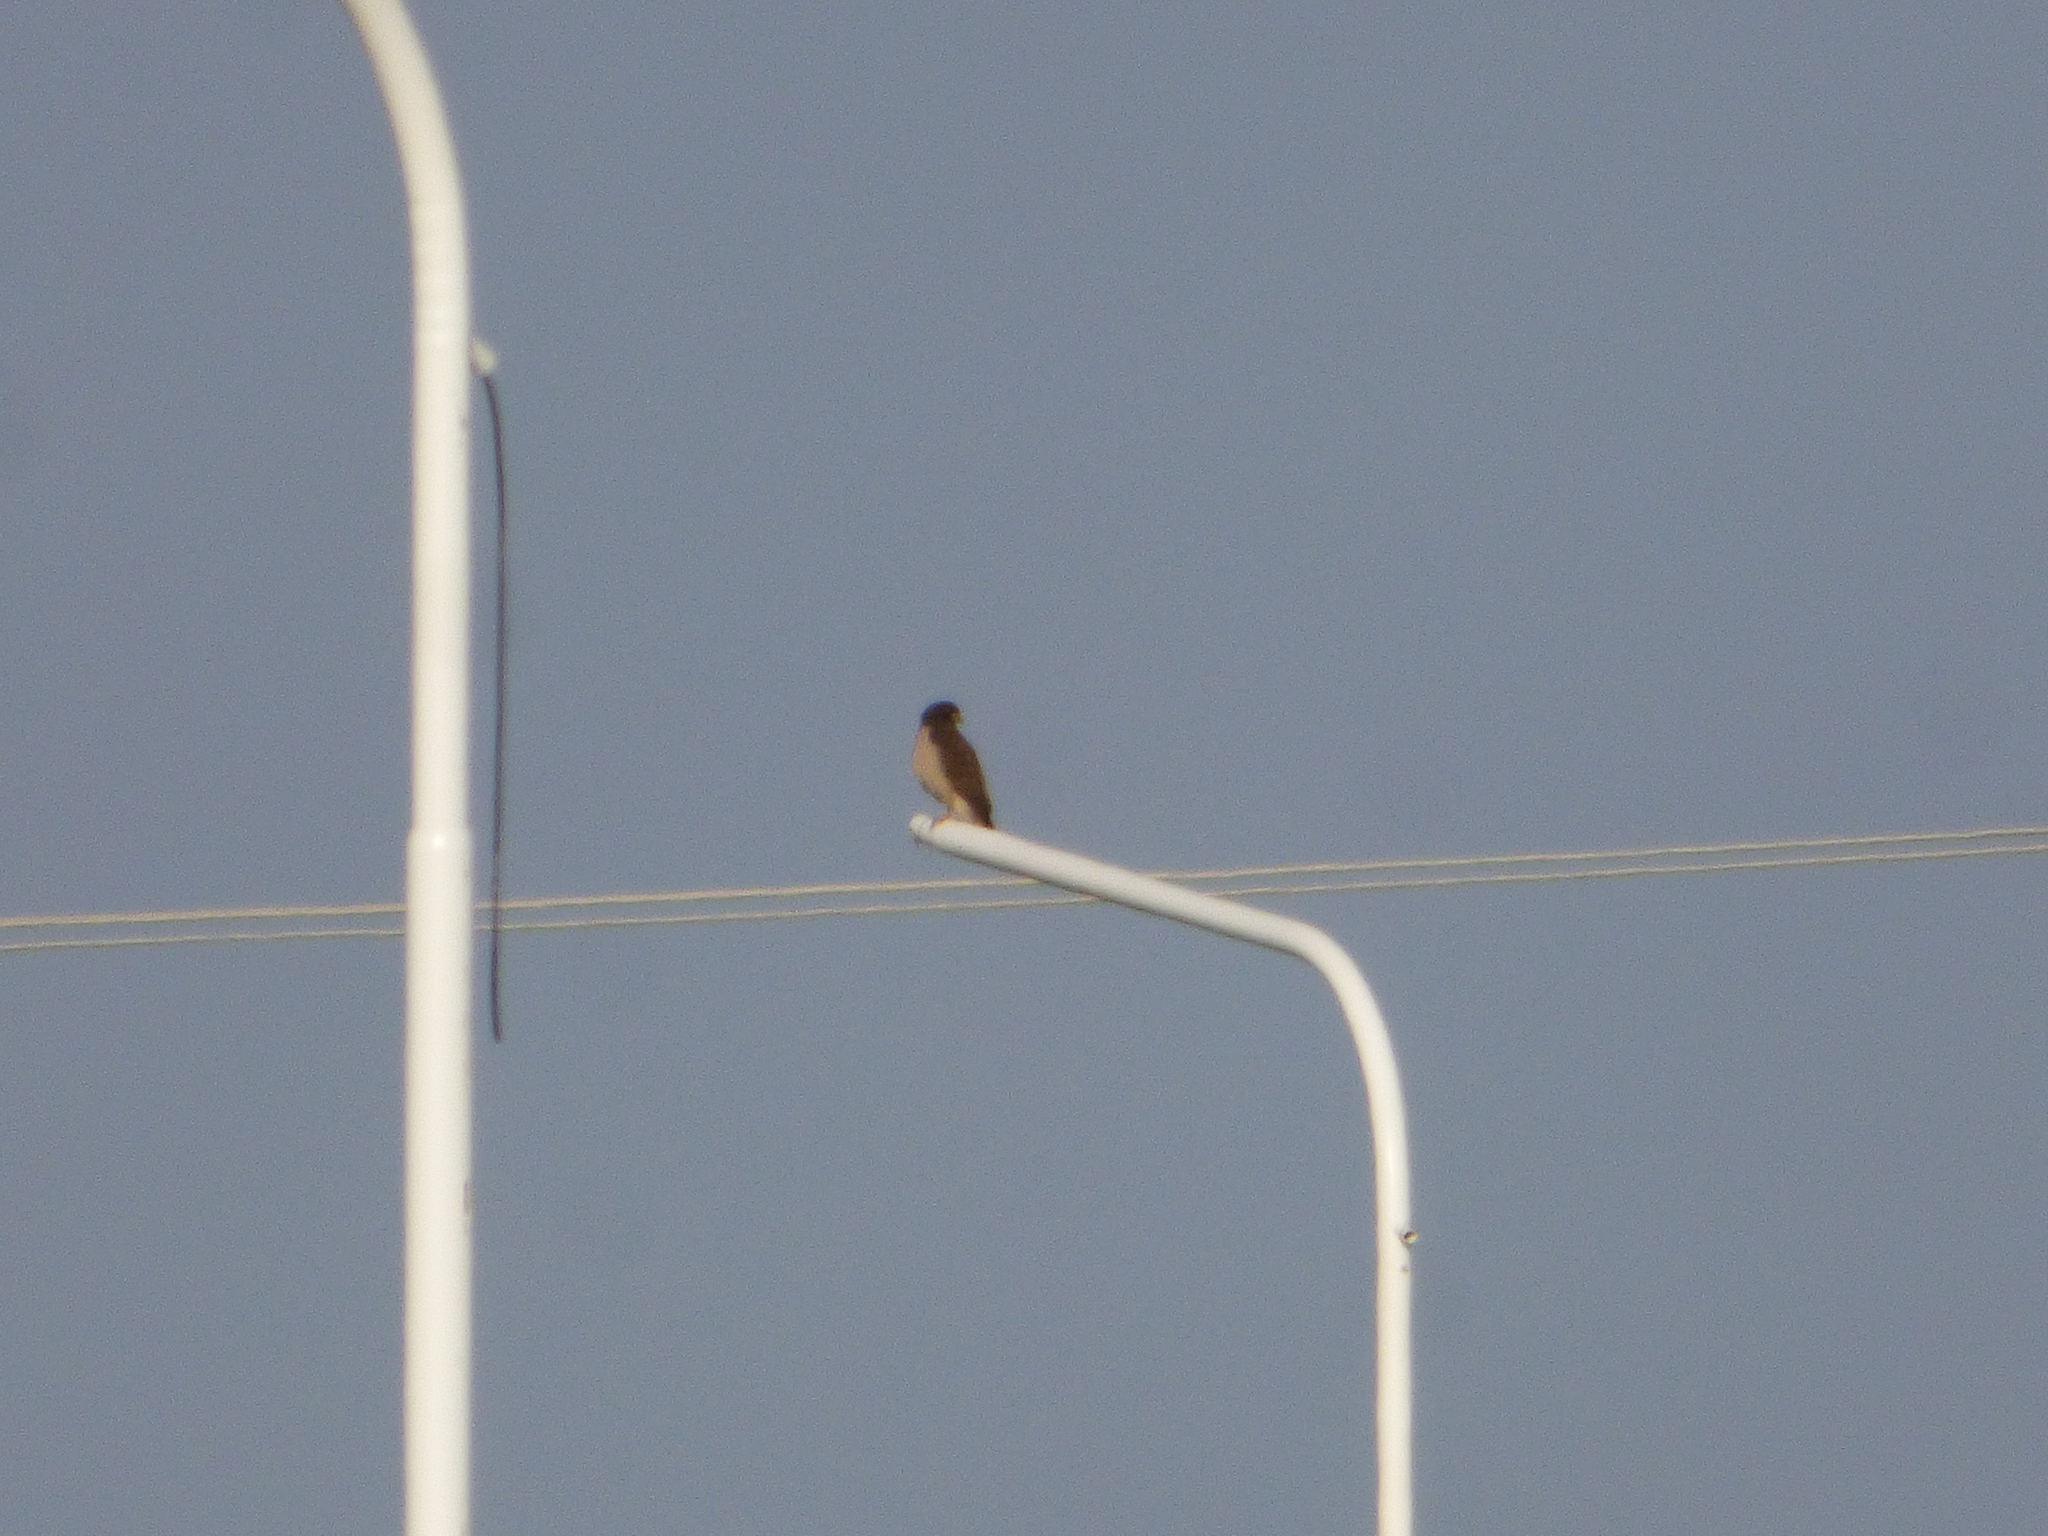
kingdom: Animalia
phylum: Chordata
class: Aves
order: Accipitriformes
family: Accipitridae
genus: Rupornis
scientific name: Rupornis magnirostris
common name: Roadside hawk
